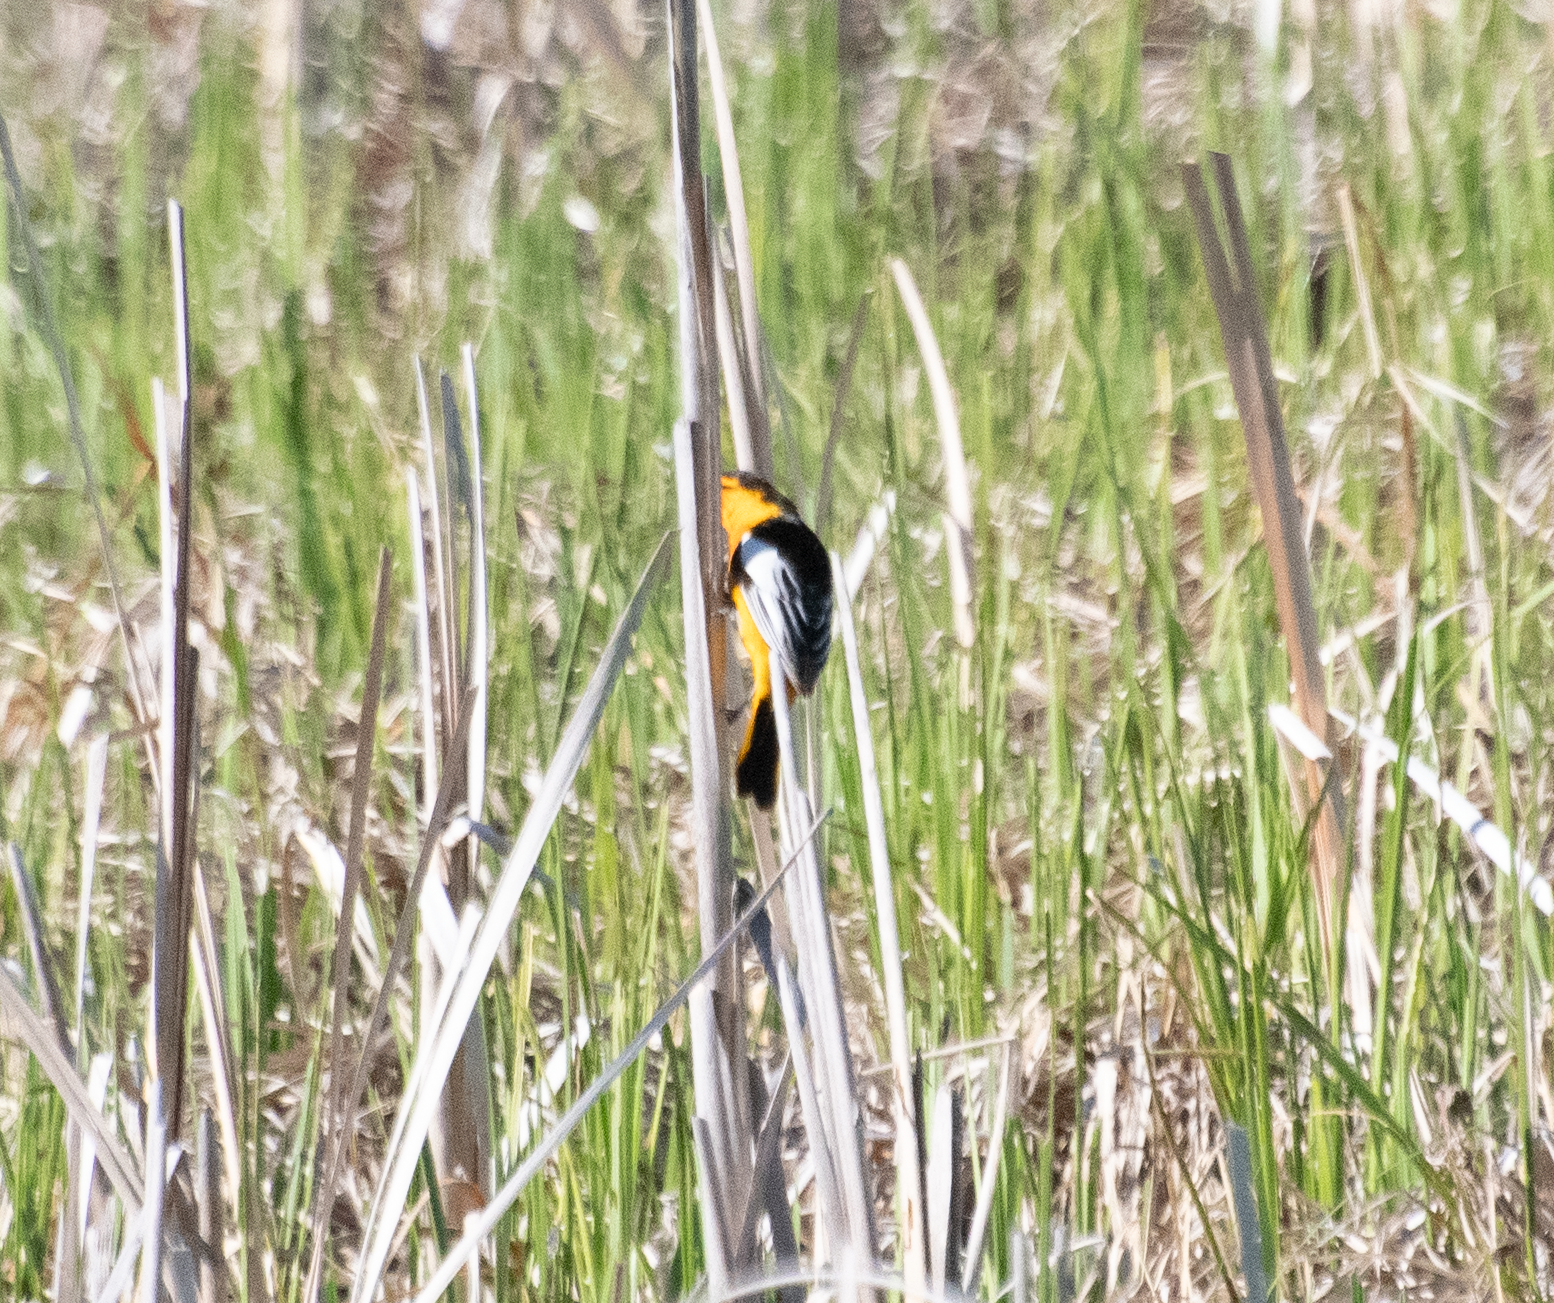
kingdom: Animalia
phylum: Chordata
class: Aves
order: Passeriformes
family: Icteridae
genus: Icterus
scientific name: Icterus bullockii
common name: Bullock's oriole
